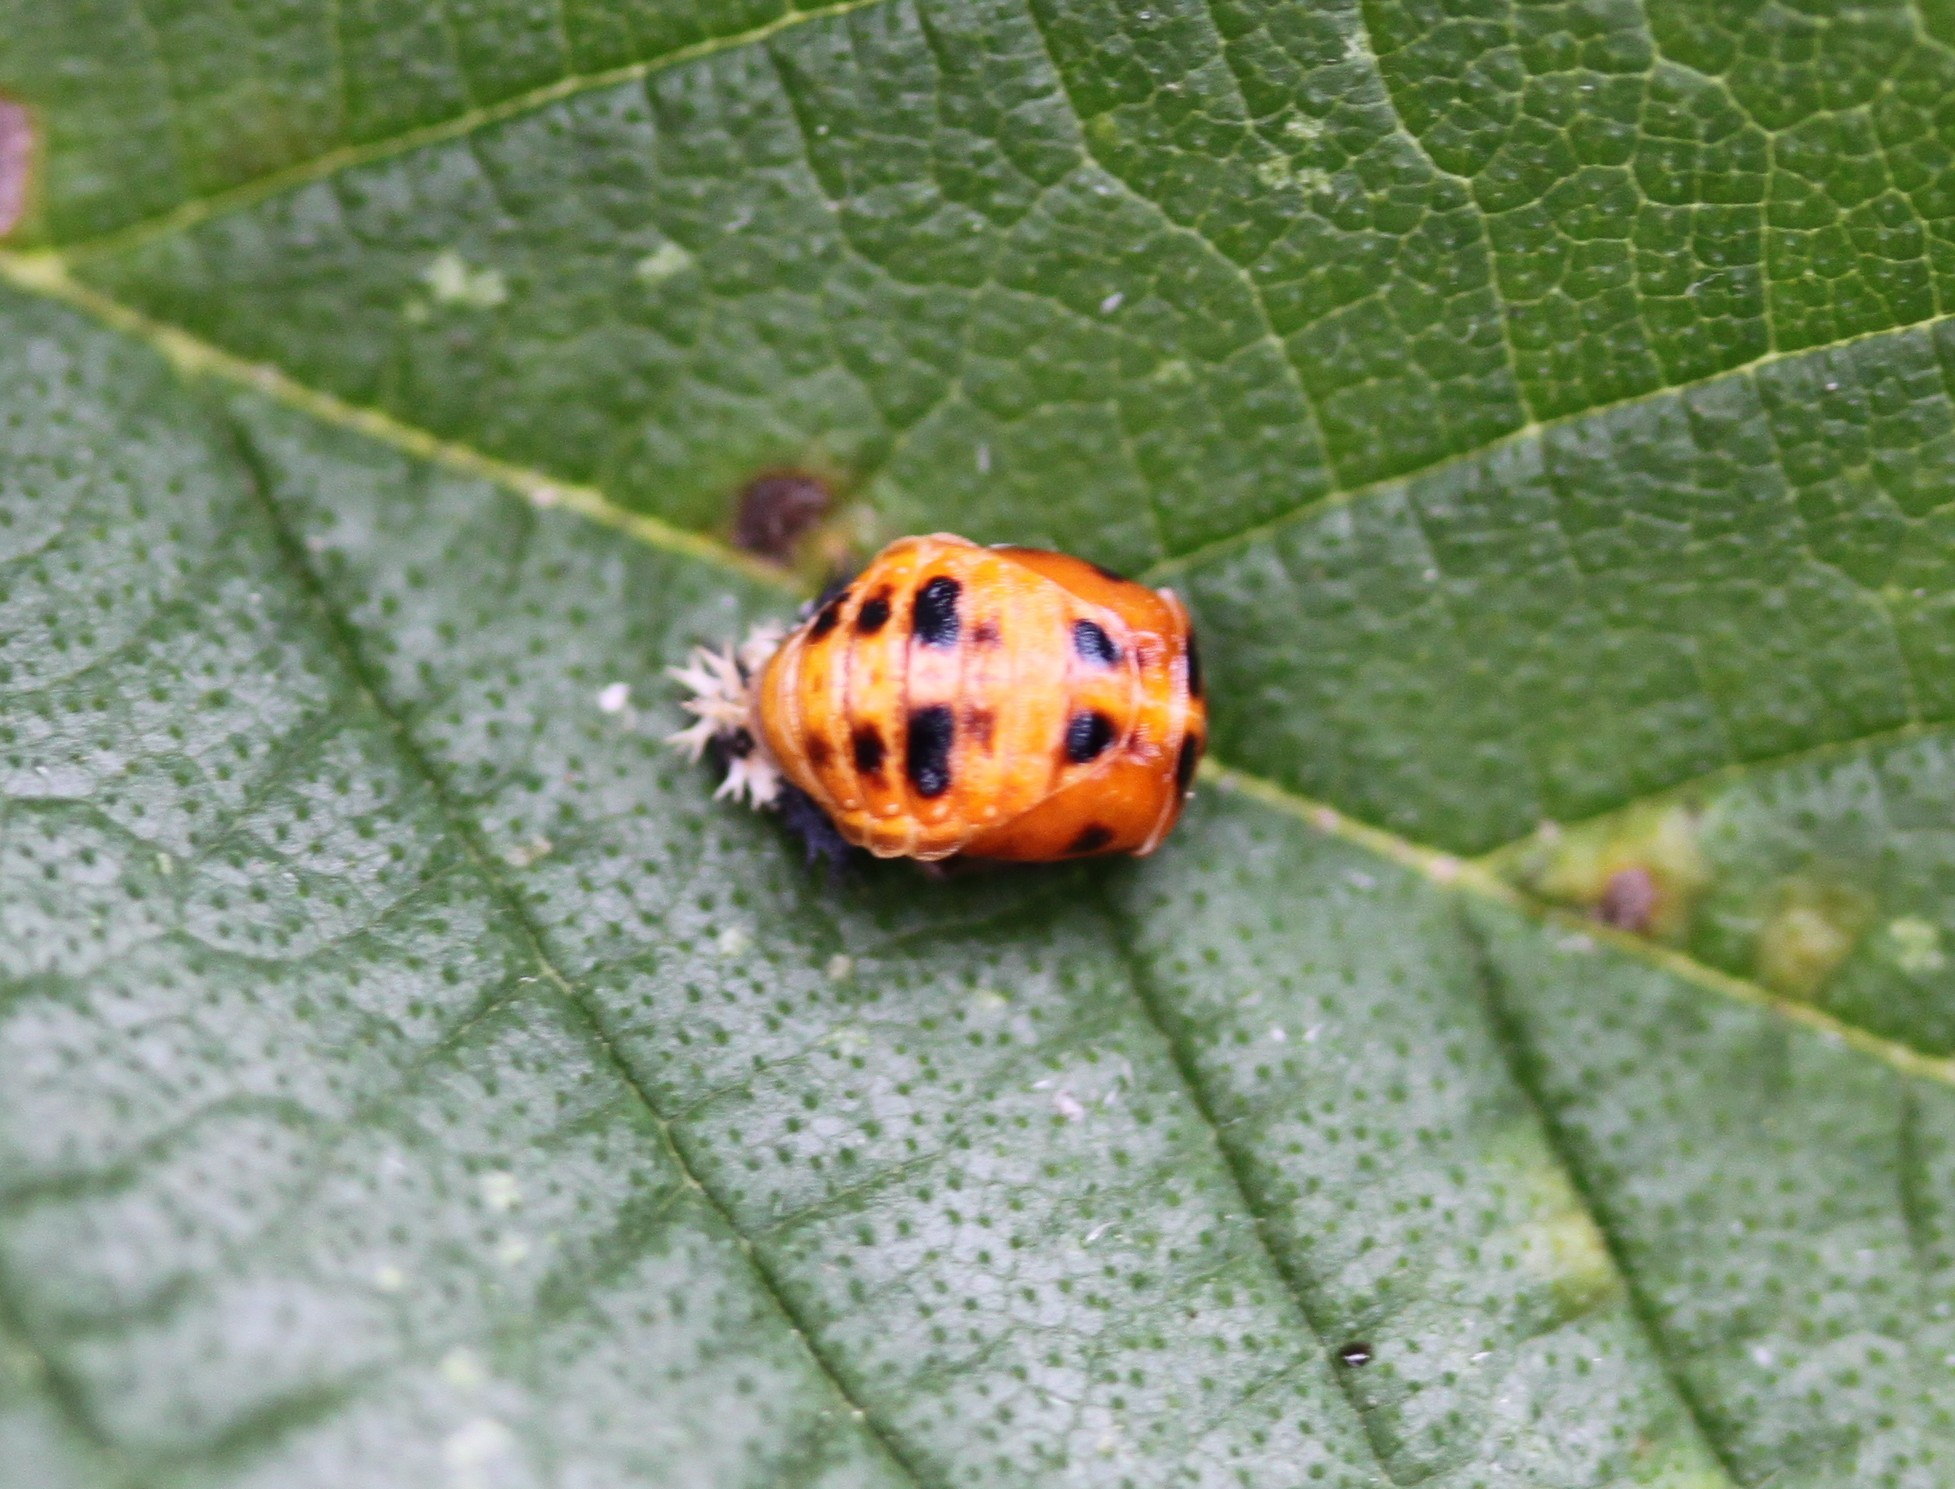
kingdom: Animalia
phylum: Arthropoda
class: Insecta
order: Coleoptera
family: Coccinellidae
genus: Harmonia
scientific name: Harmonia axyridis
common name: Harlequin ladybird
